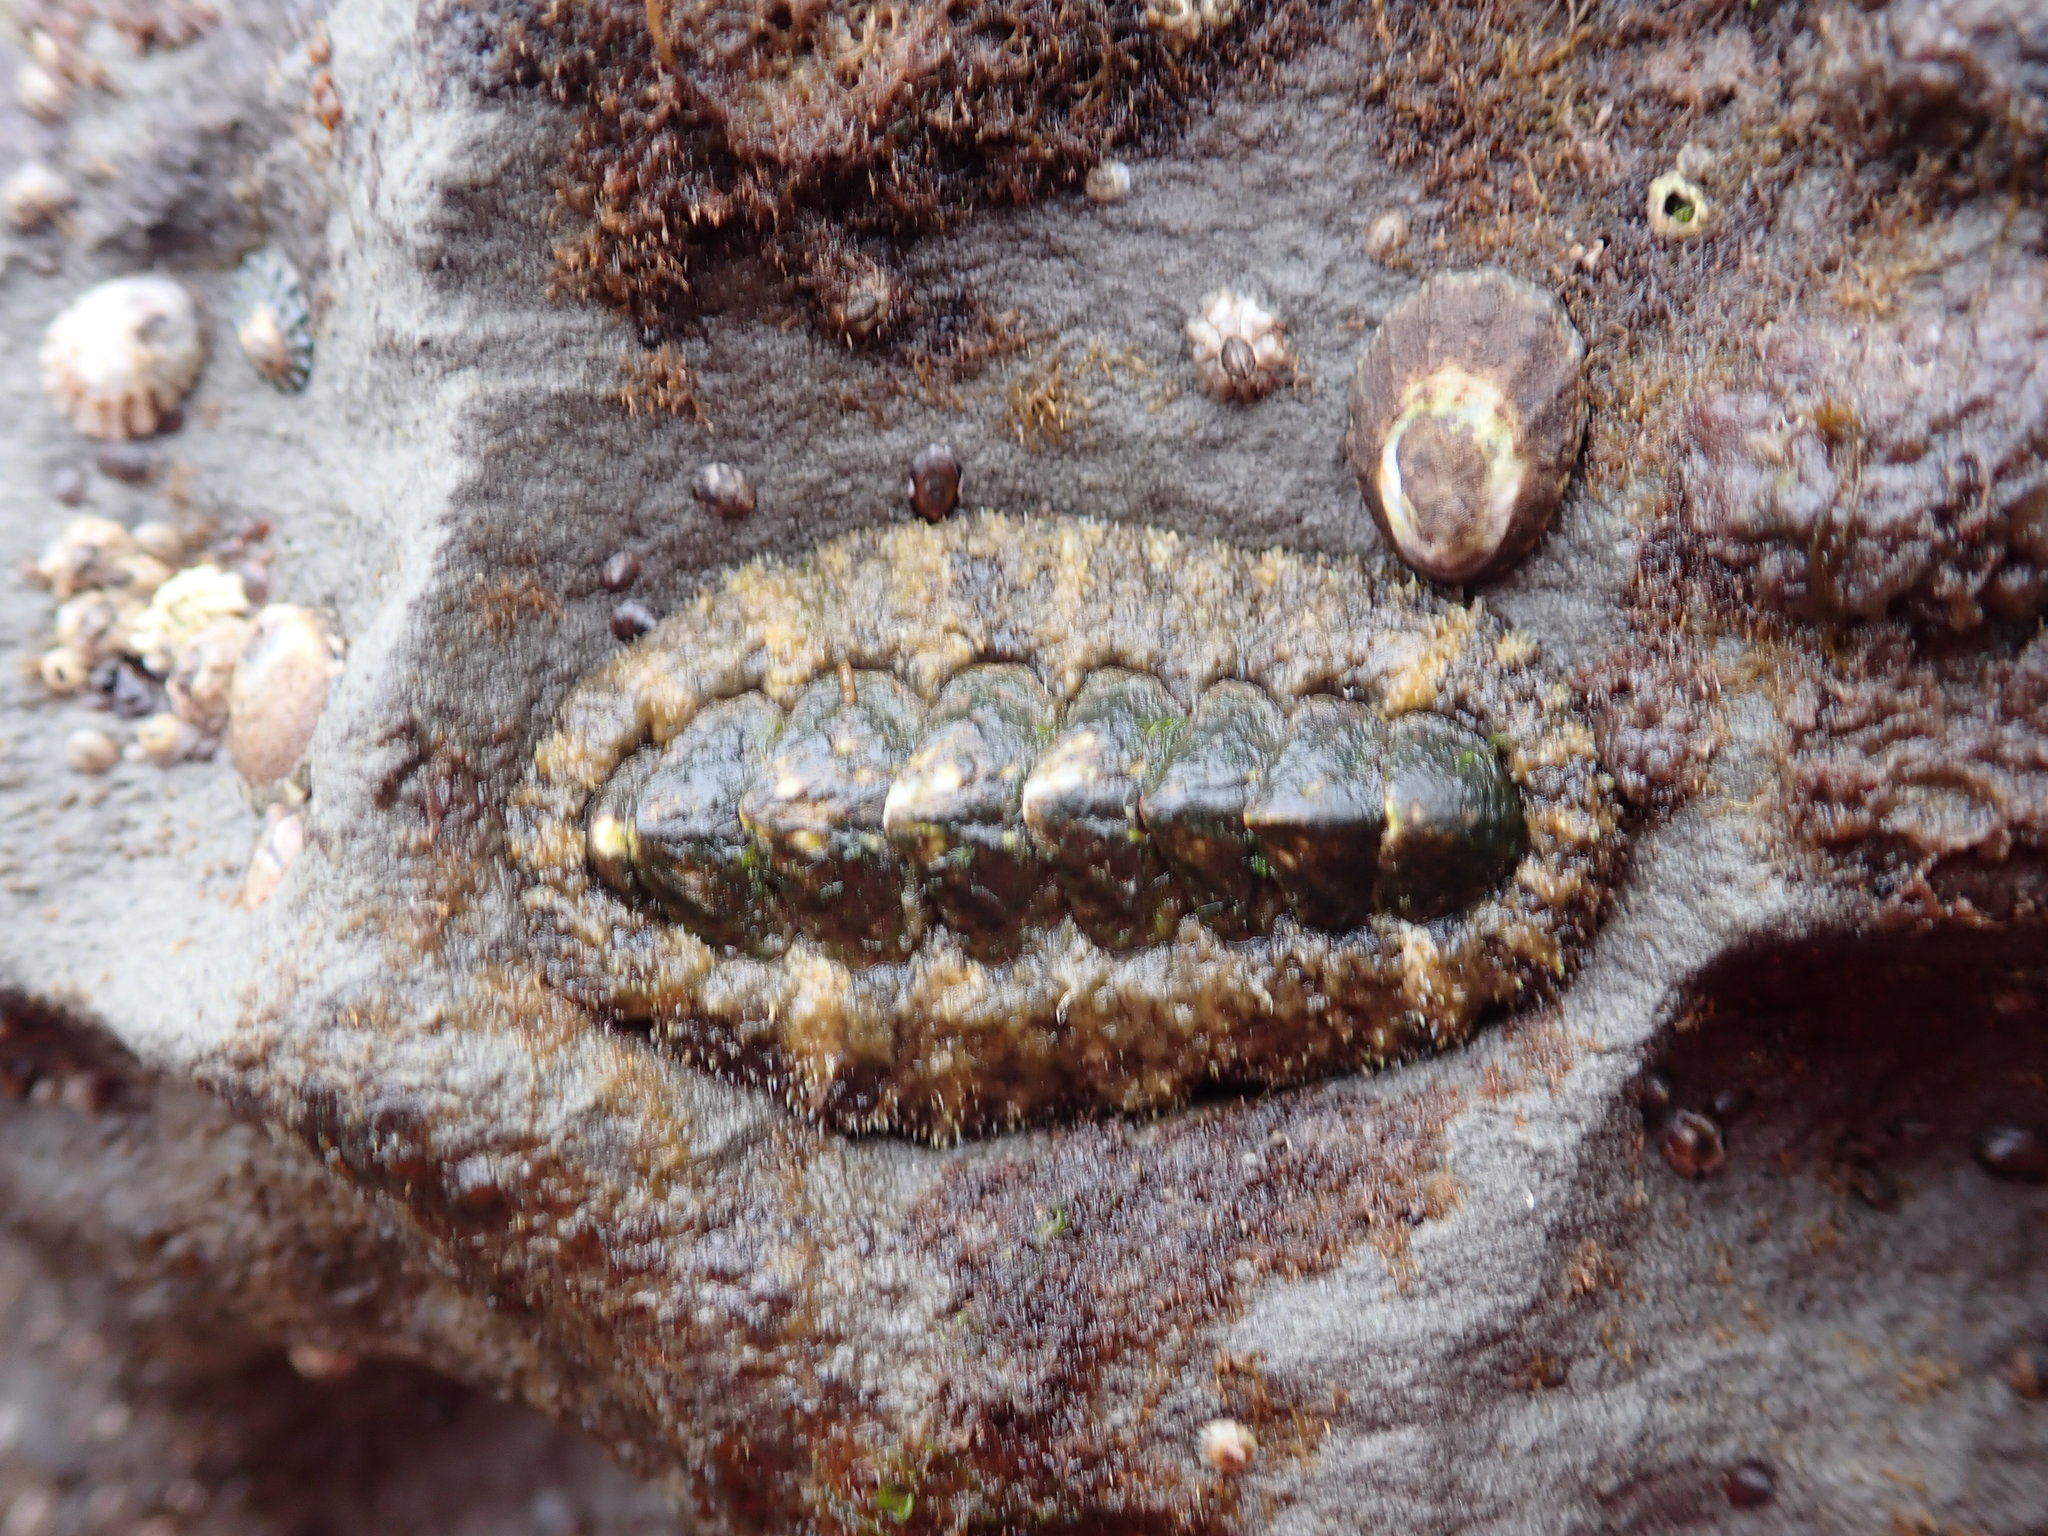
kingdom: Animalia
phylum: Mollusca
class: Polyplacophora
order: Chitonida
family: Tonicellidae
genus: Nuttallina
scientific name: Nuttallina californica
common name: California nuttall chiton
